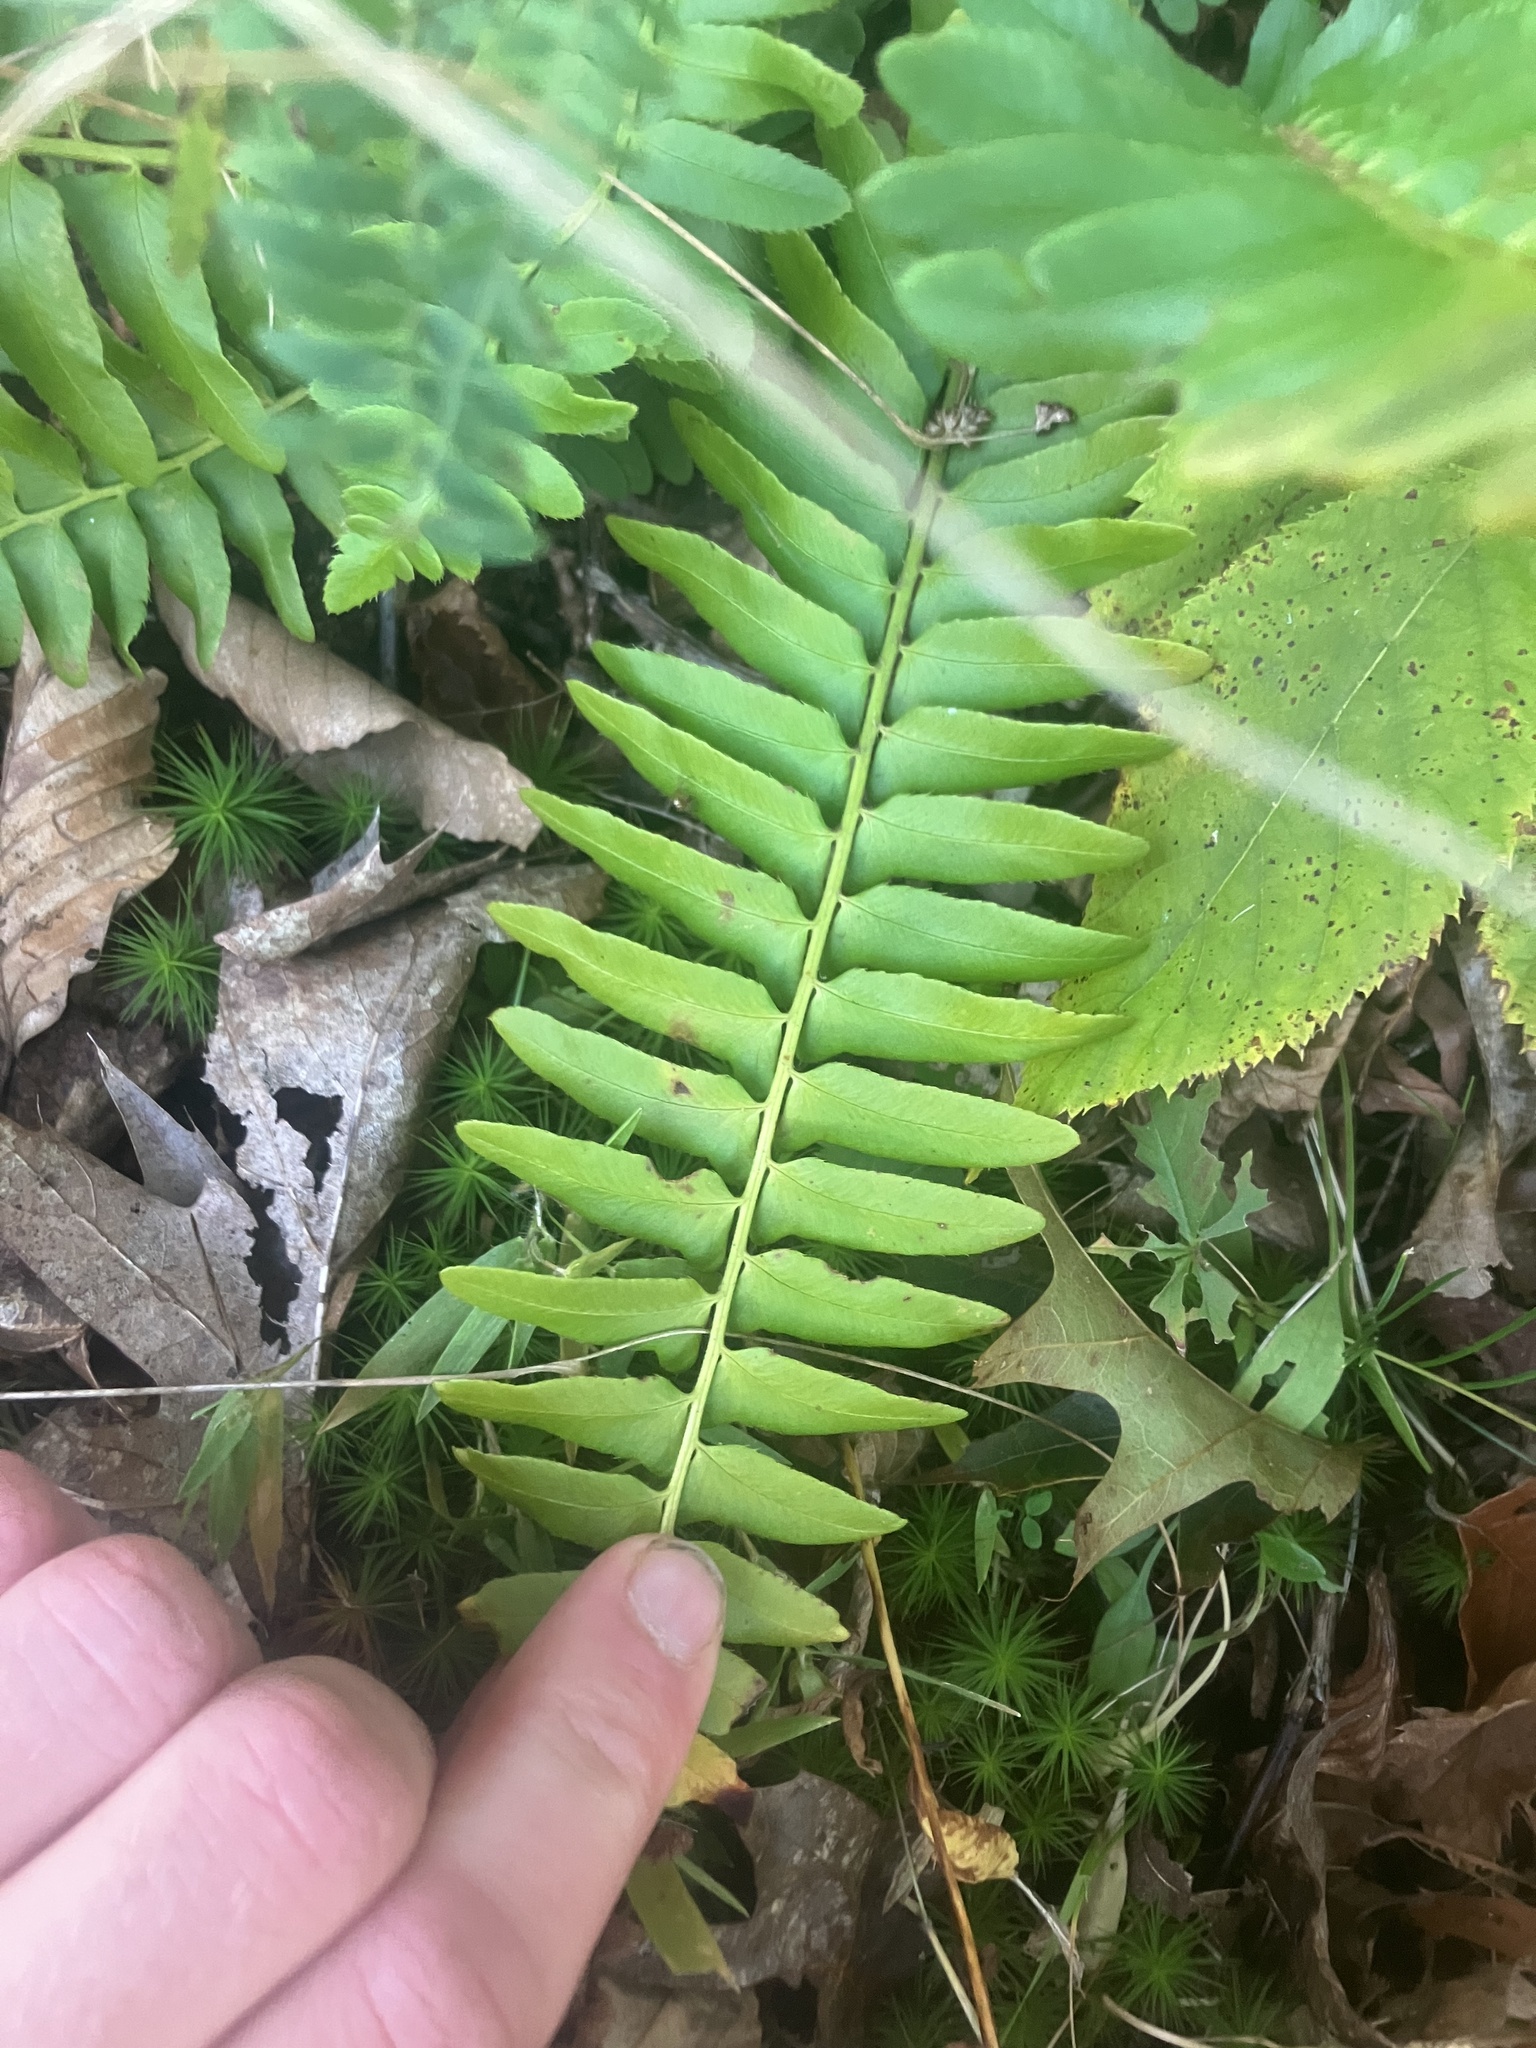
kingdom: Plantae
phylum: Tracheophyta
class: Polypodiopsida
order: Polypodiales
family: Dryopteridaceae
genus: Polystichum
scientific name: Polystichum acrostichoides
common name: Christmas fern
